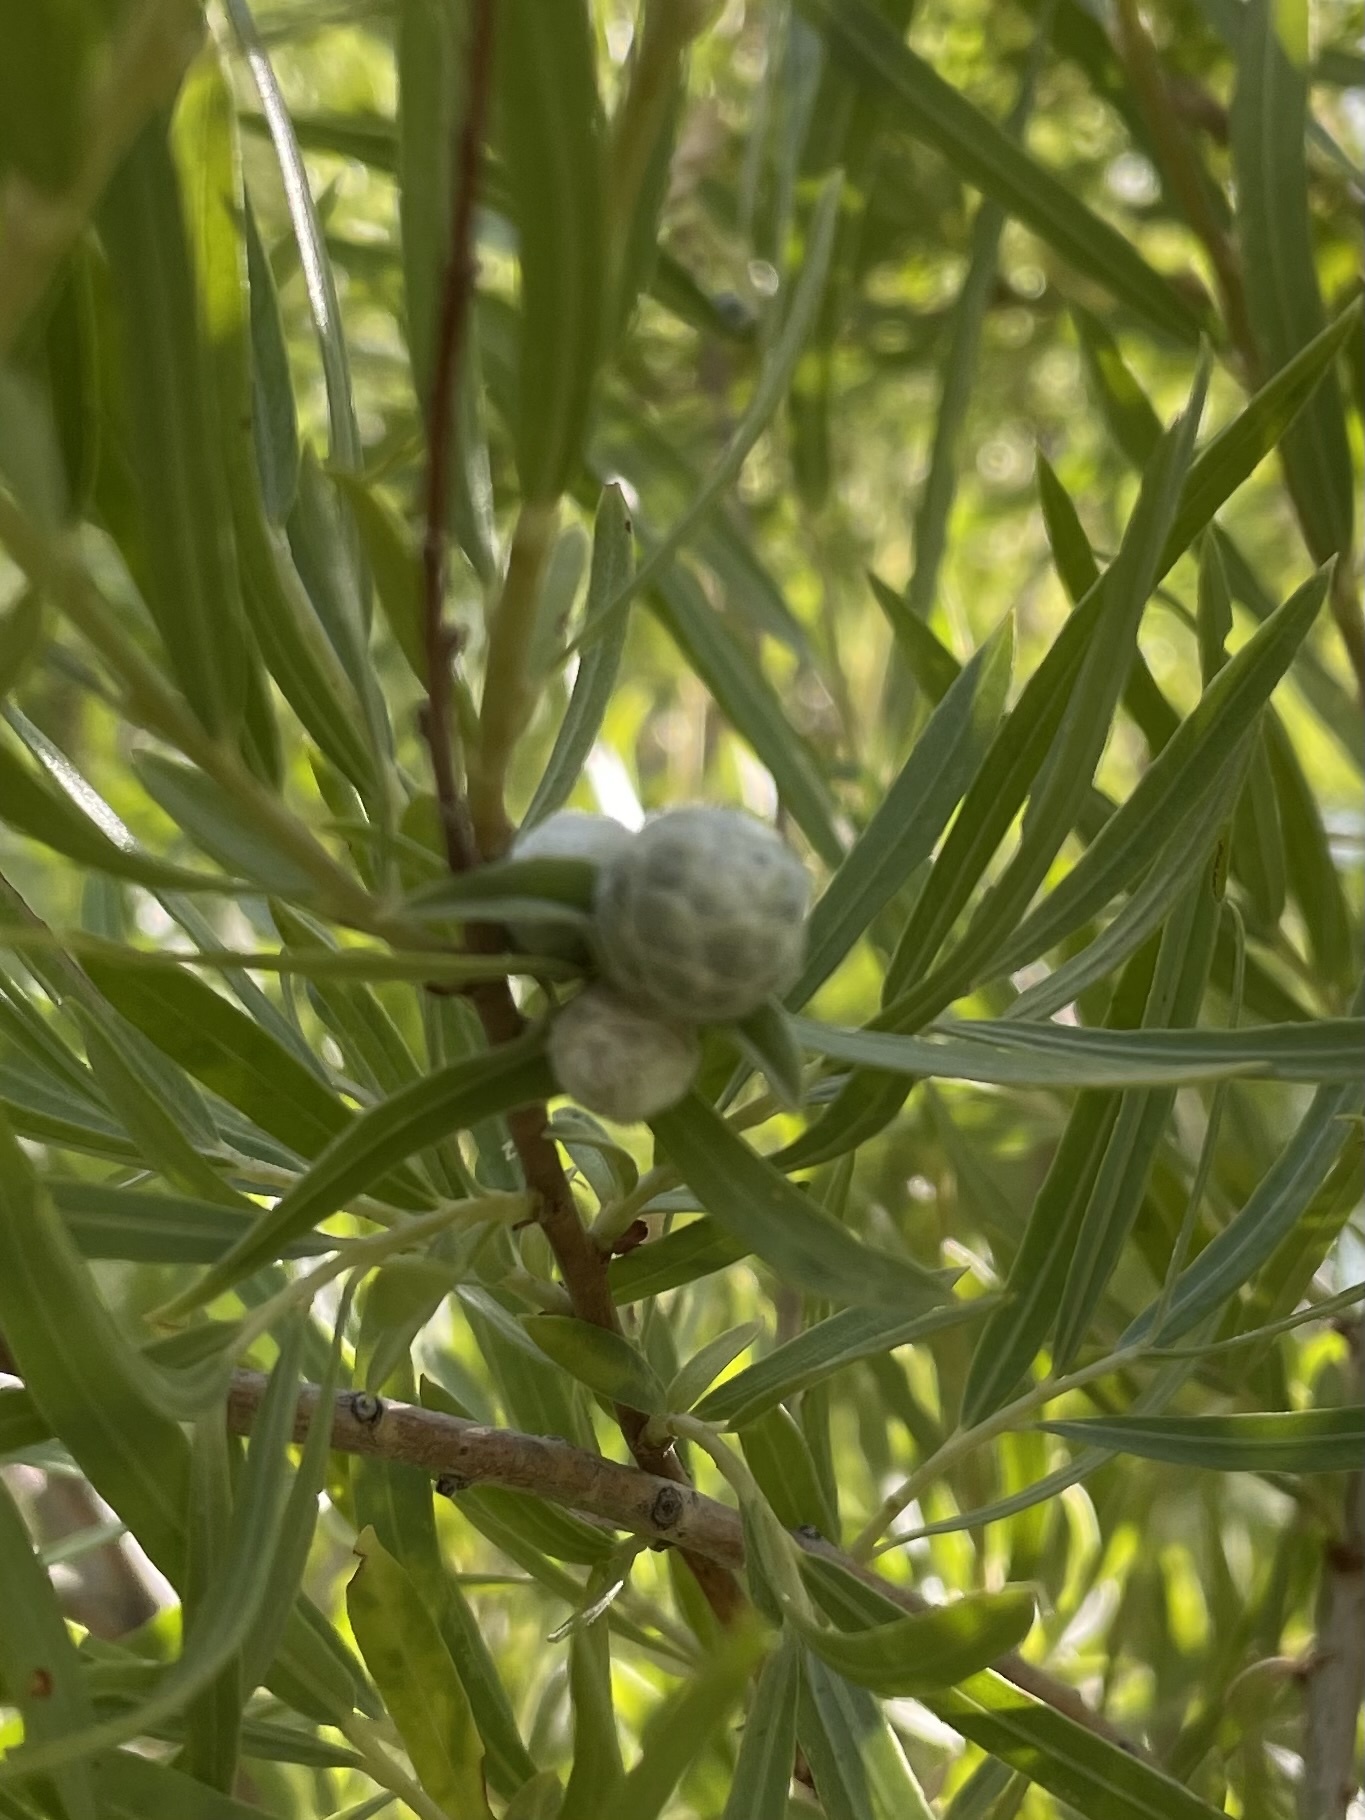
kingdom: Animalia
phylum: Arthropoda
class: Insecta
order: Diptera
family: Cecidomyiidae
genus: Rabdophaga
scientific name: Rabdophaga strobiloides
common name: Willow pinecone gall midge
